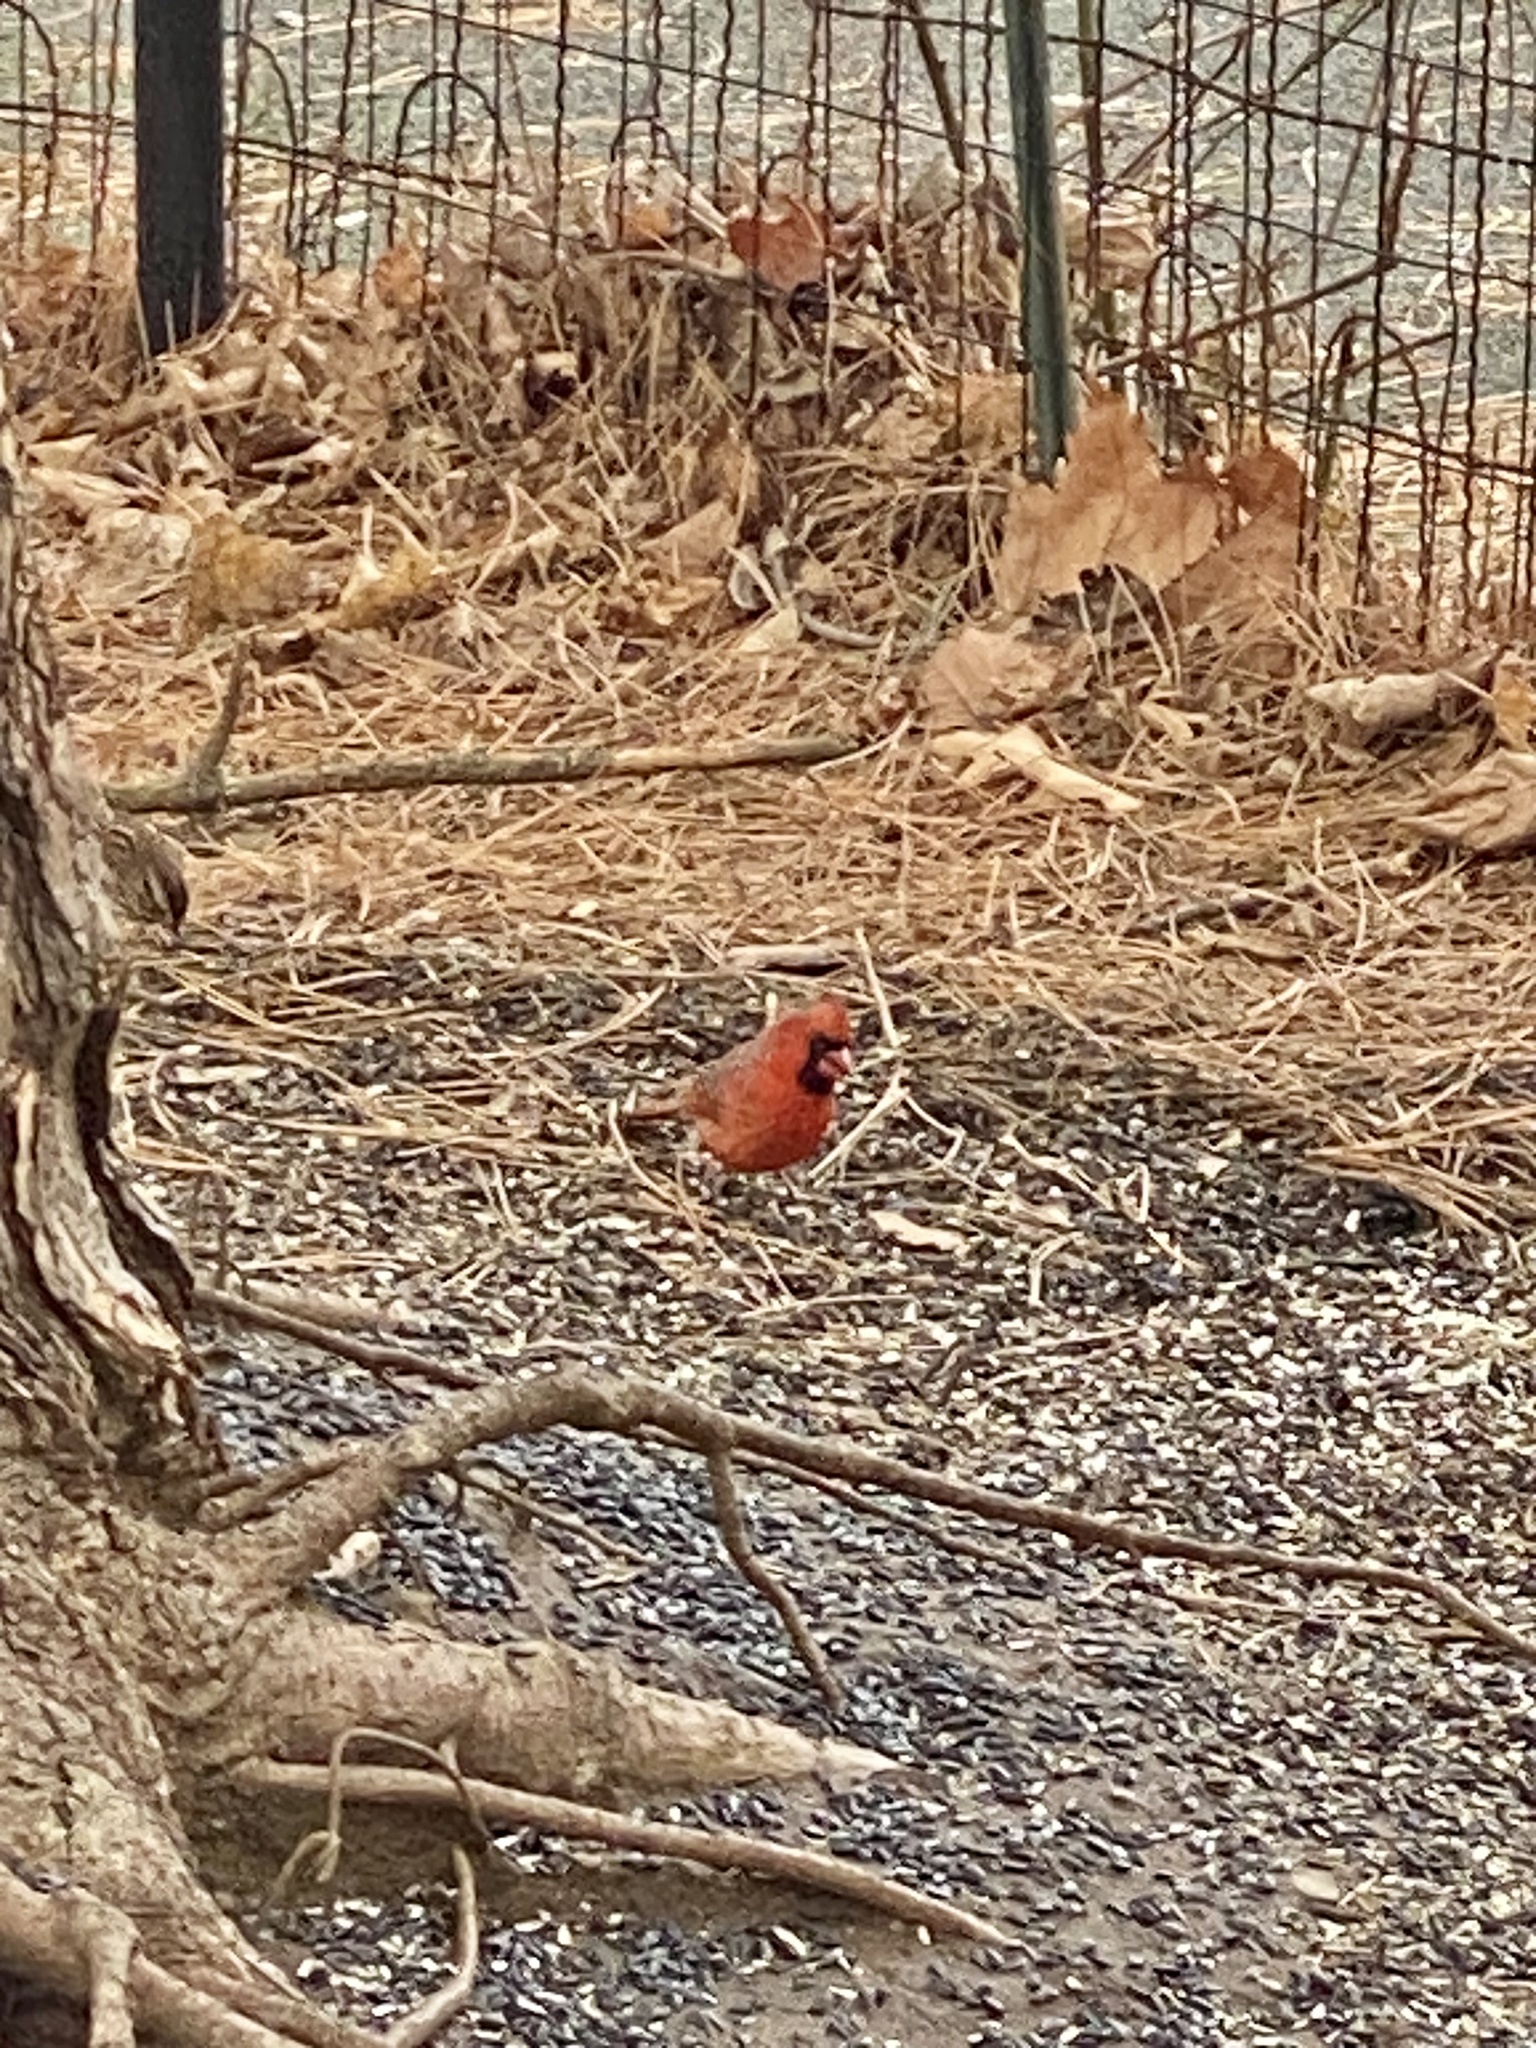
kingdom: Animalia
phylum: Chordata
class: Aves
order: Passeriformes
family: Cardinalidae
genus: Cardinalis
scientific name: Cardinalis cardinalis
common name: Northern cardinal
